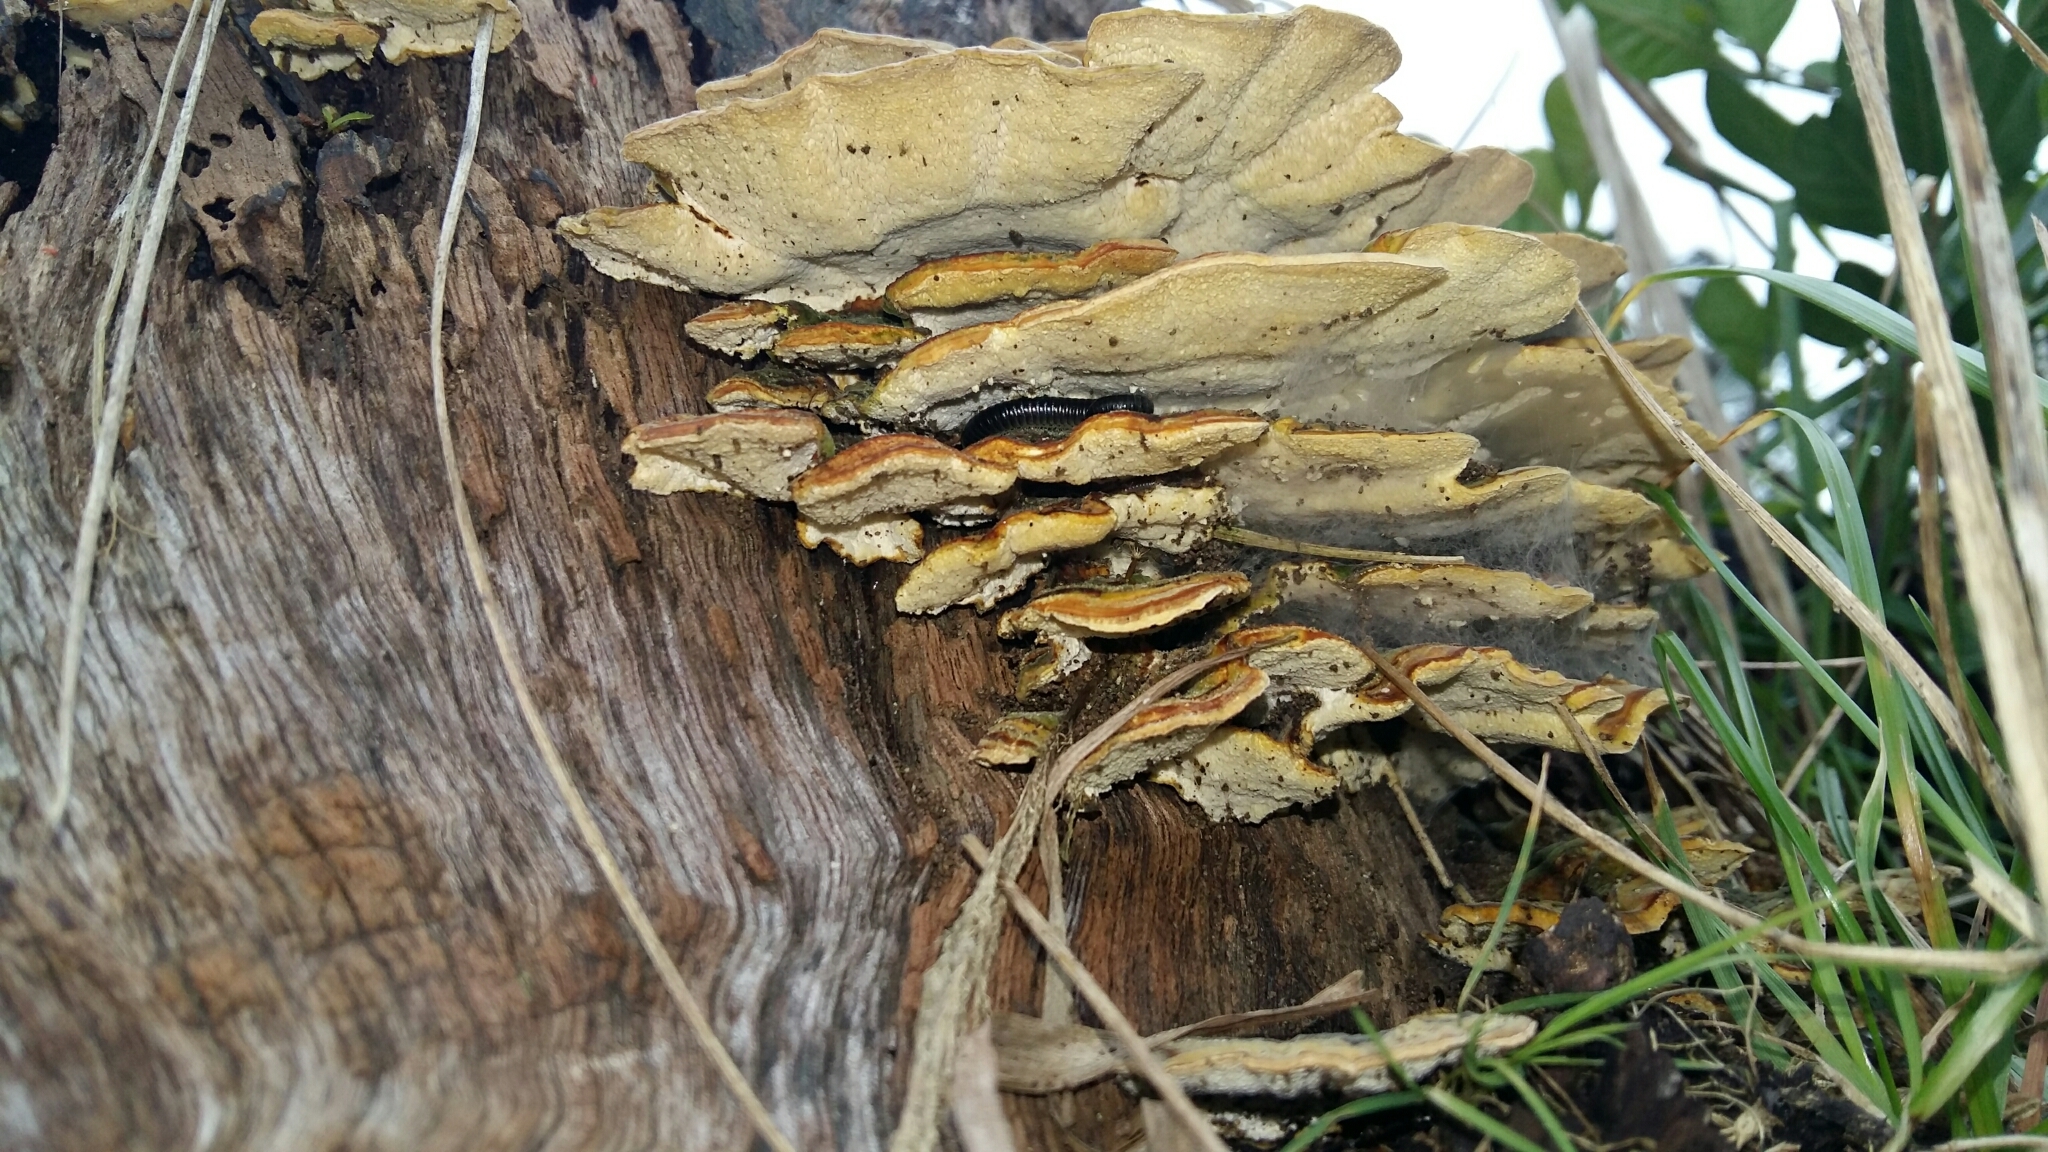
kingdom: Fungi
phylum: Basidiomycota
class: Agaricomycetes
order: Polyporales
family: Polyporaceae
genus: Trametes
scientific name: Trametes versicolor
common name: Turkeytail
